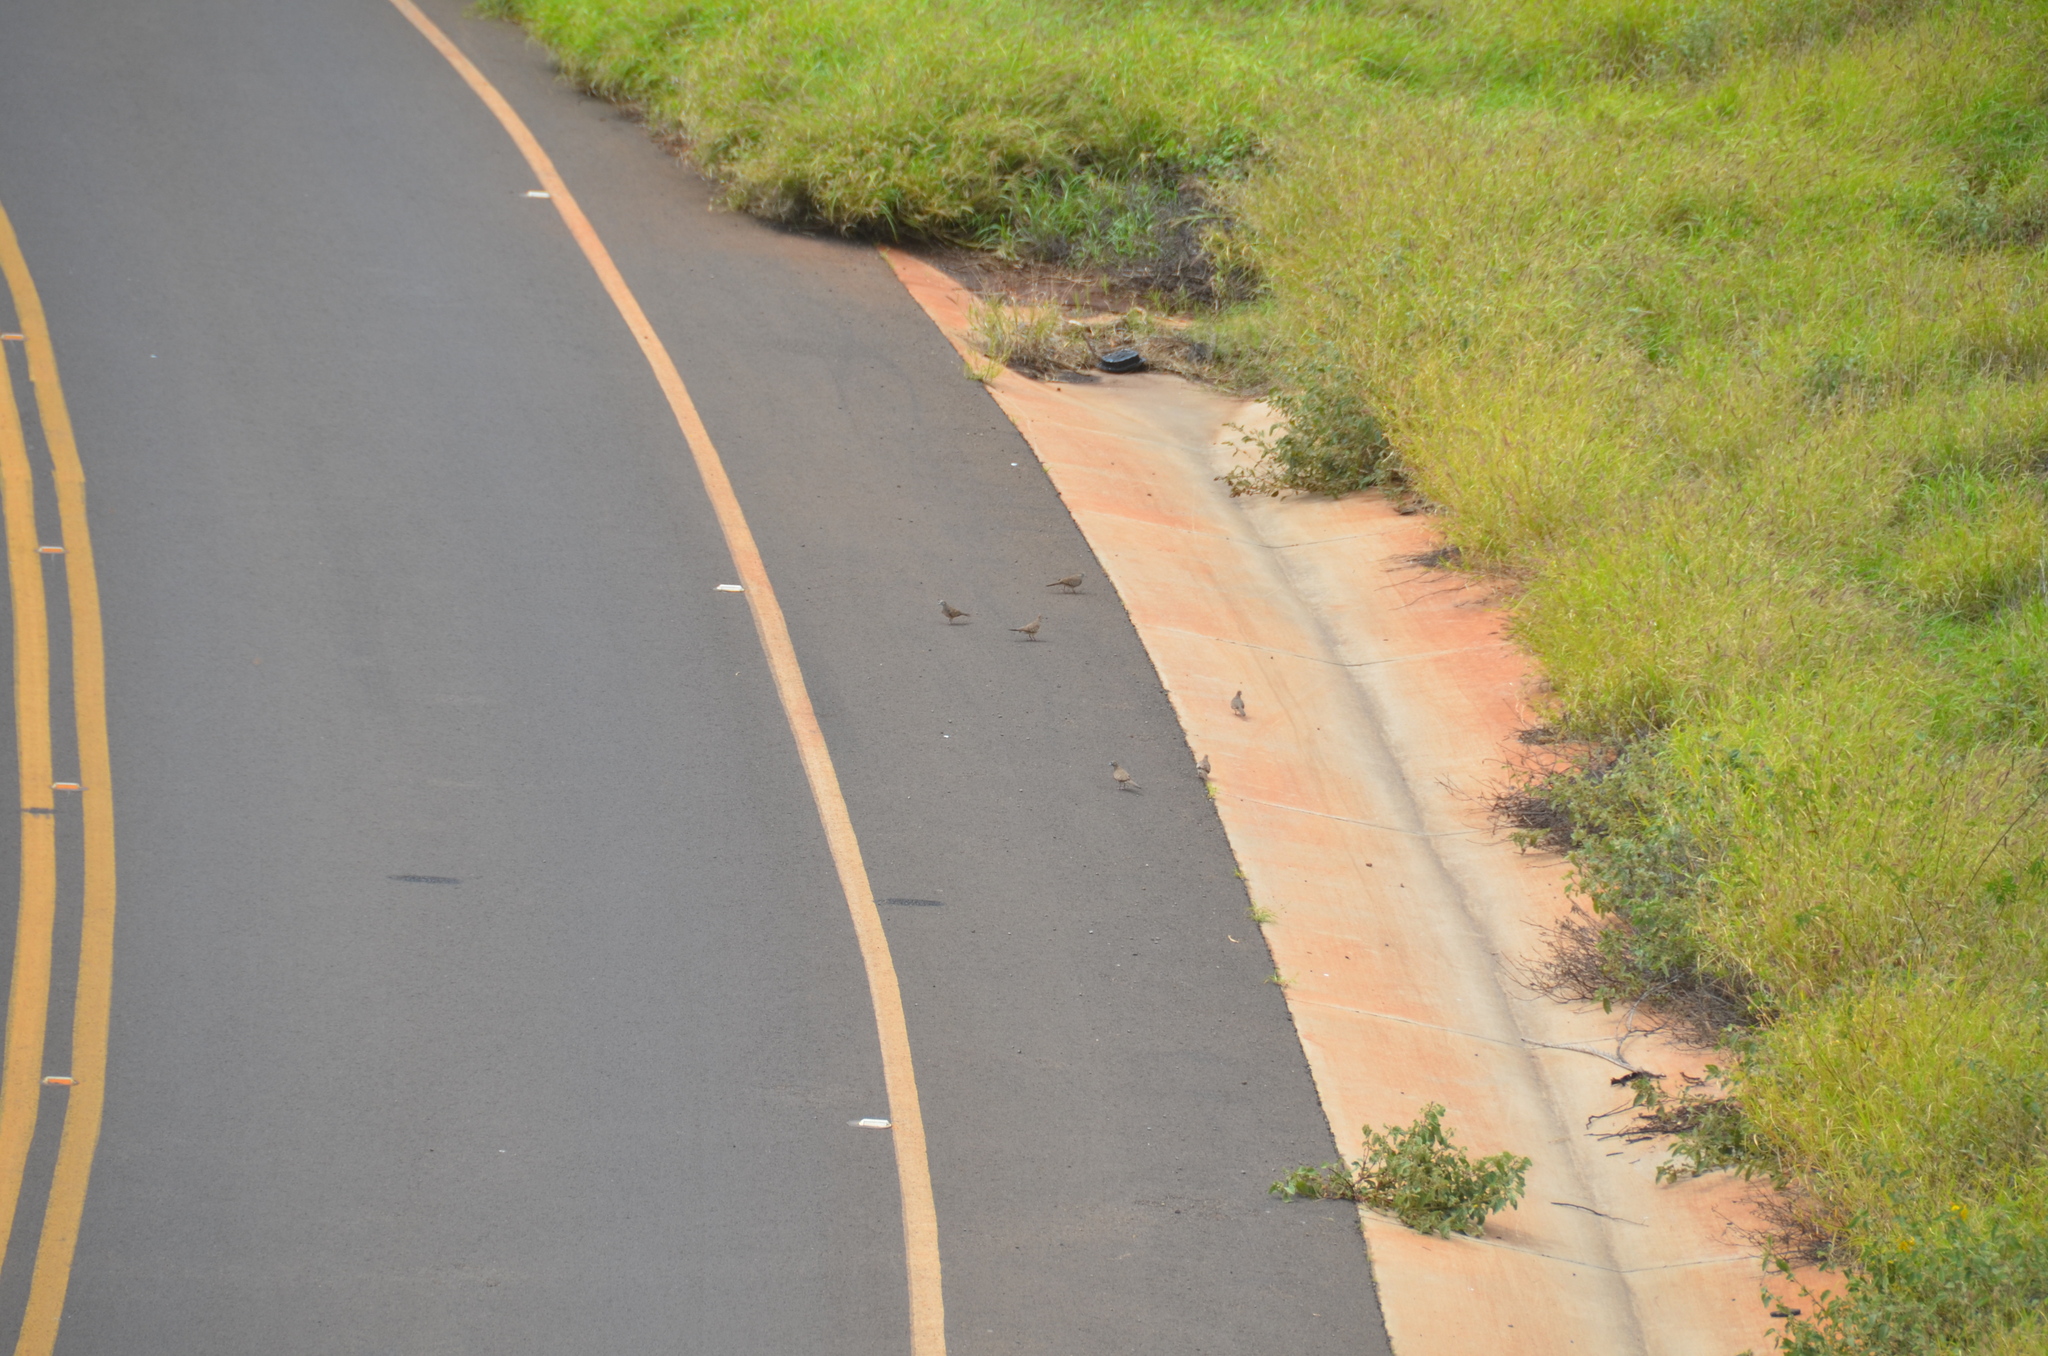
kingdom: Animalia
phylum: Chordata
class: Aves
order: Columbiformes
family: Columbidae
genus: Geopelia
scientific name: Geopelia striata
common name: Zebra dove
